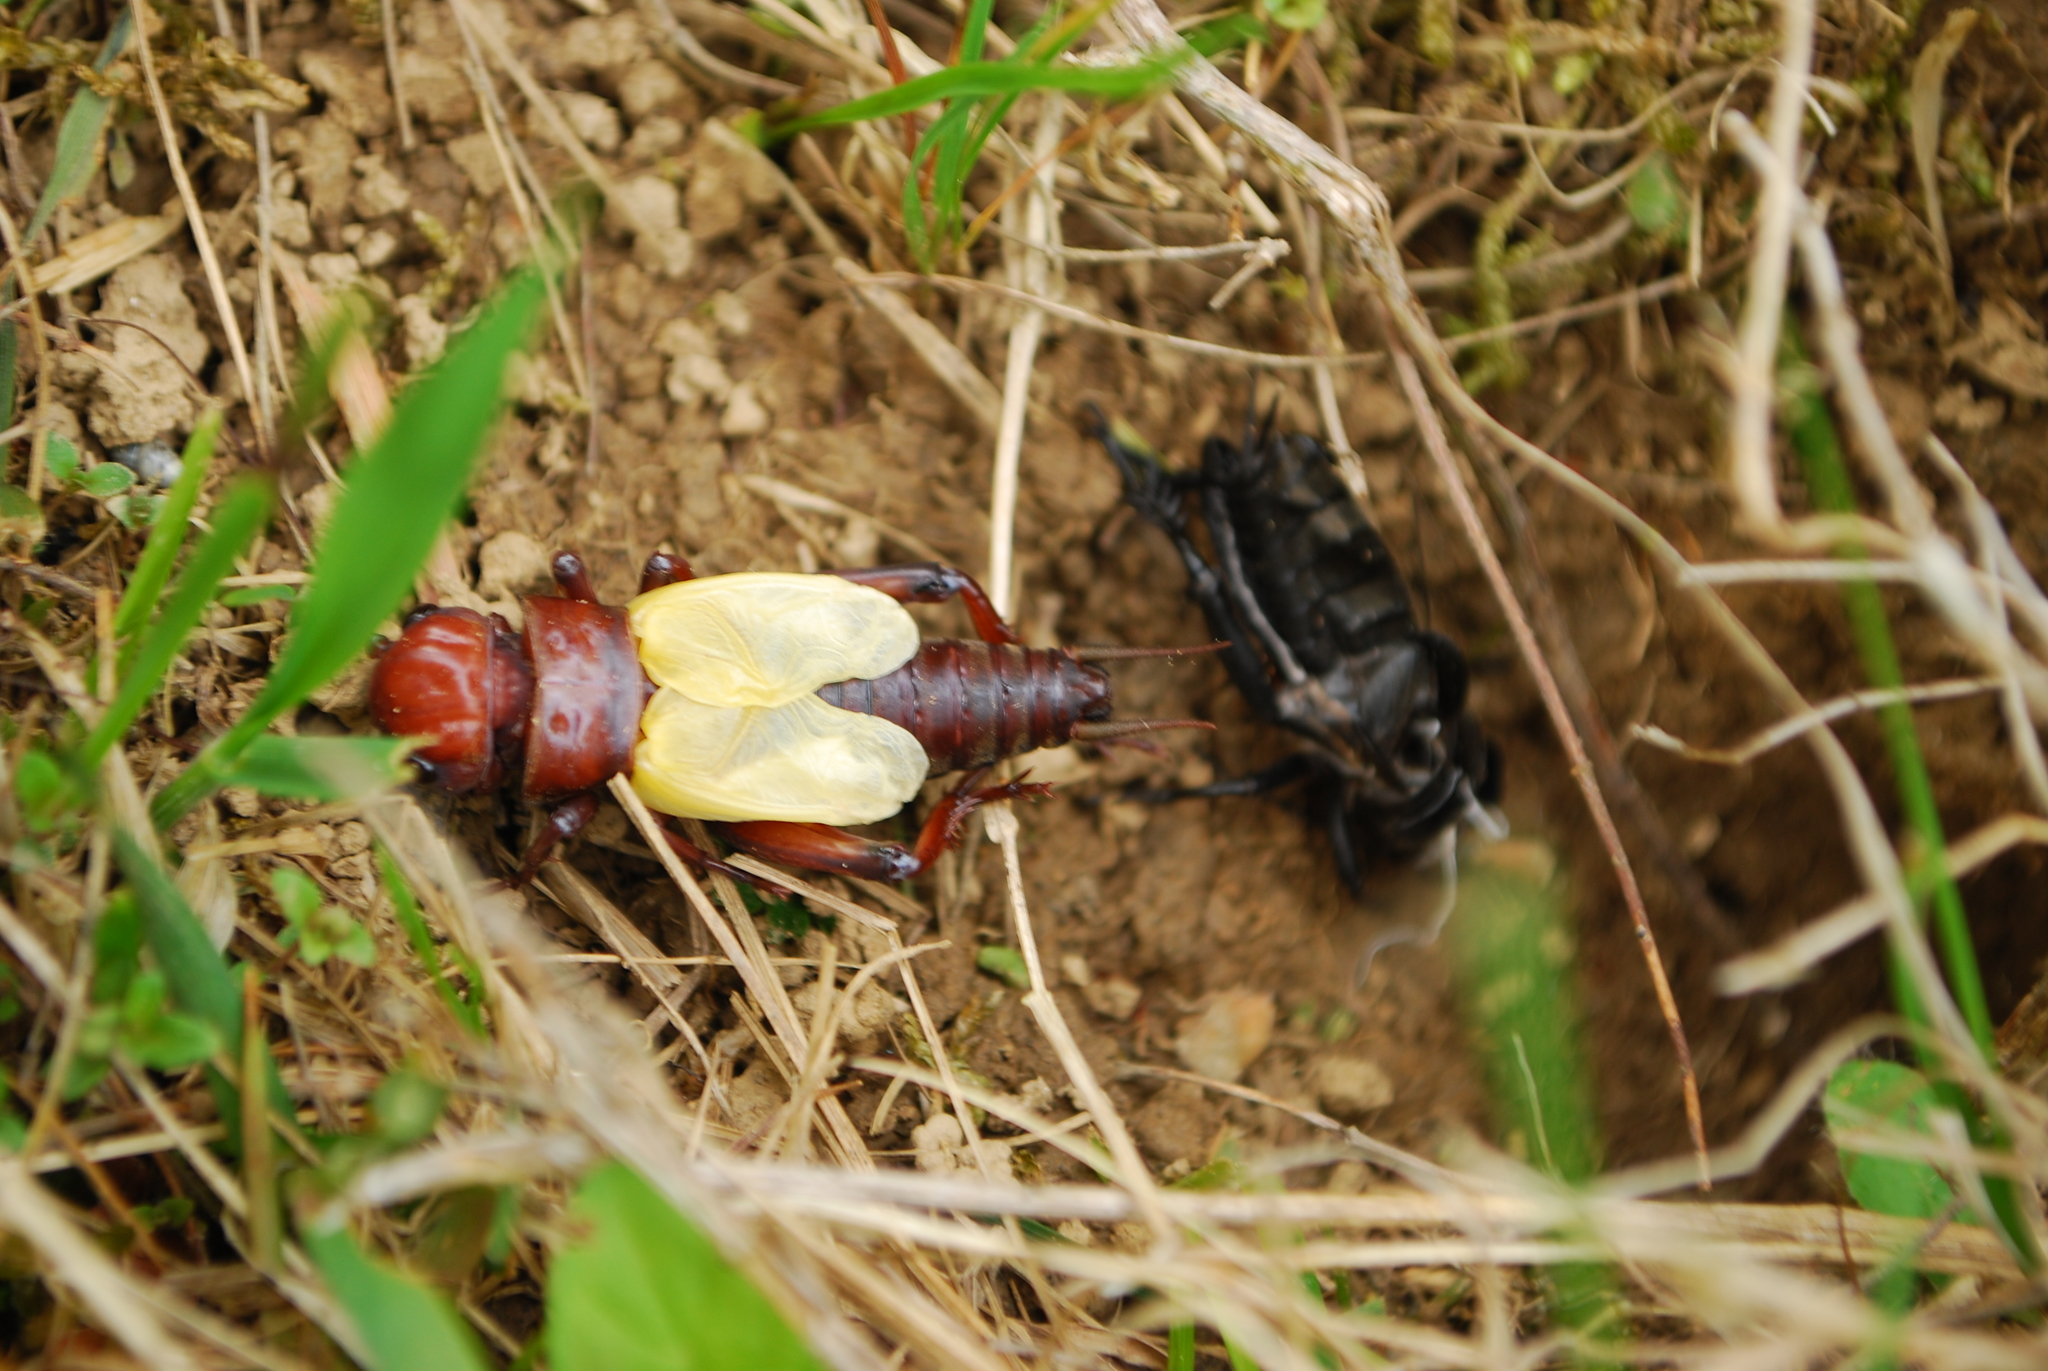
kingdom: Animalia
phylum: Arthropoda
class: Insecta
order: Orthoptera
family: Gryllidae
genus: Gryllus
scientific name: Gryllus campestris
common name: Field cricket
